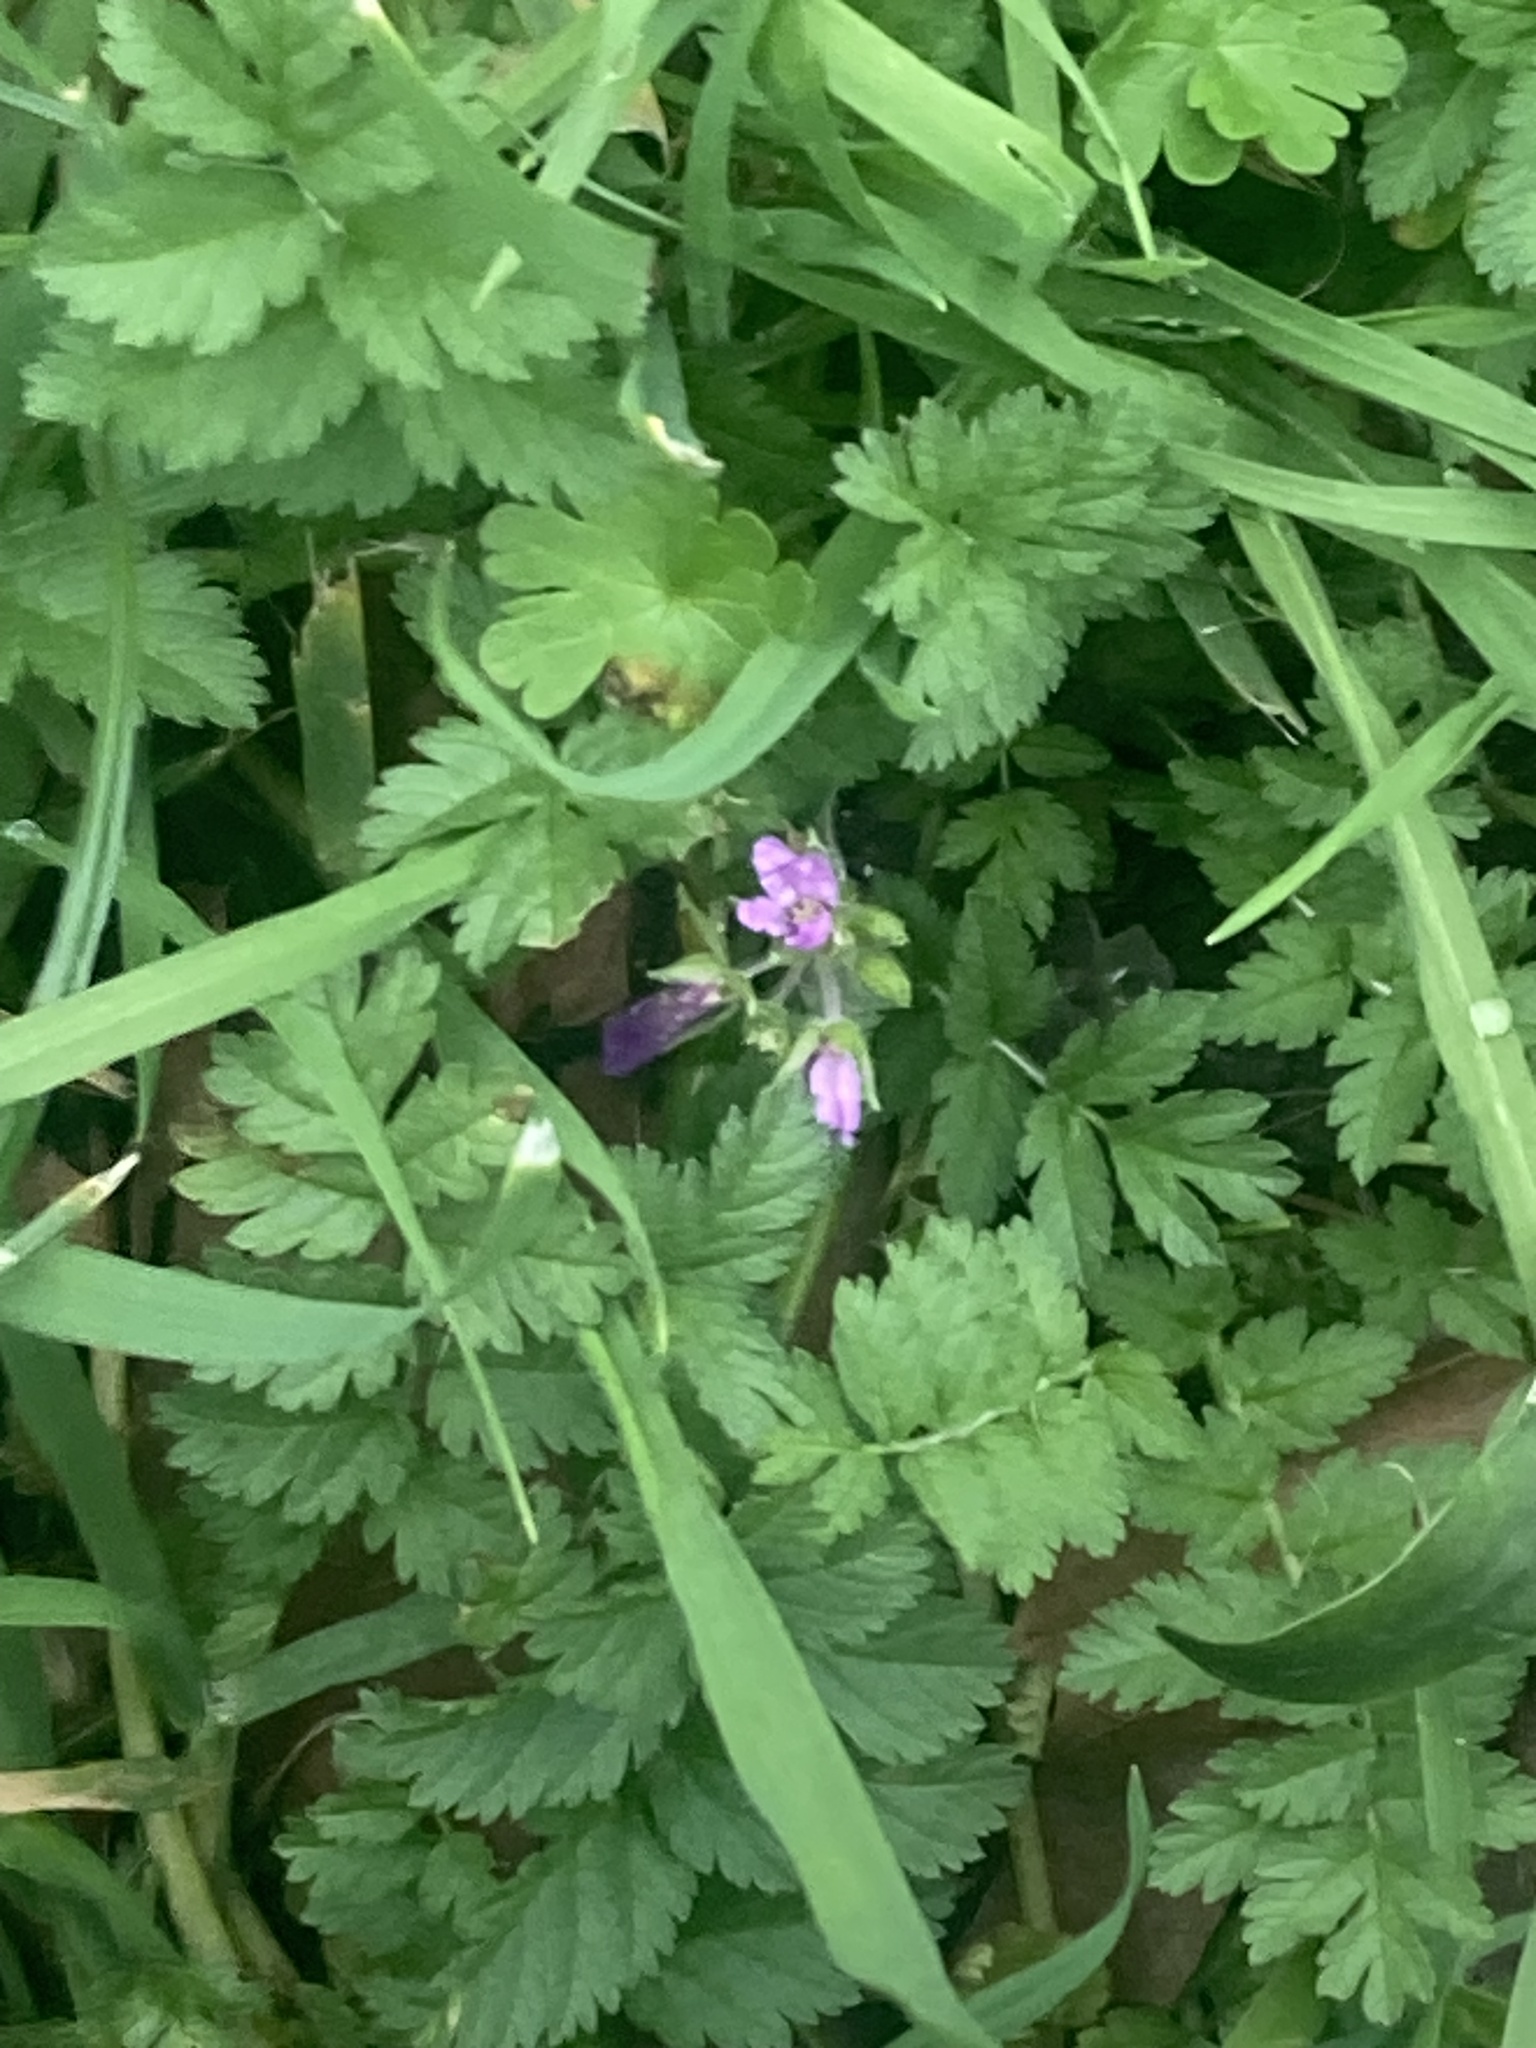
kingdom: Plantae
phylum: Tracheophyta
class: Magnoliopsida
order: Geraniales
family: Geraniaceae
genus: Erodium
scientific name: Erodium moschatum
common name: Musk stork's-bill
